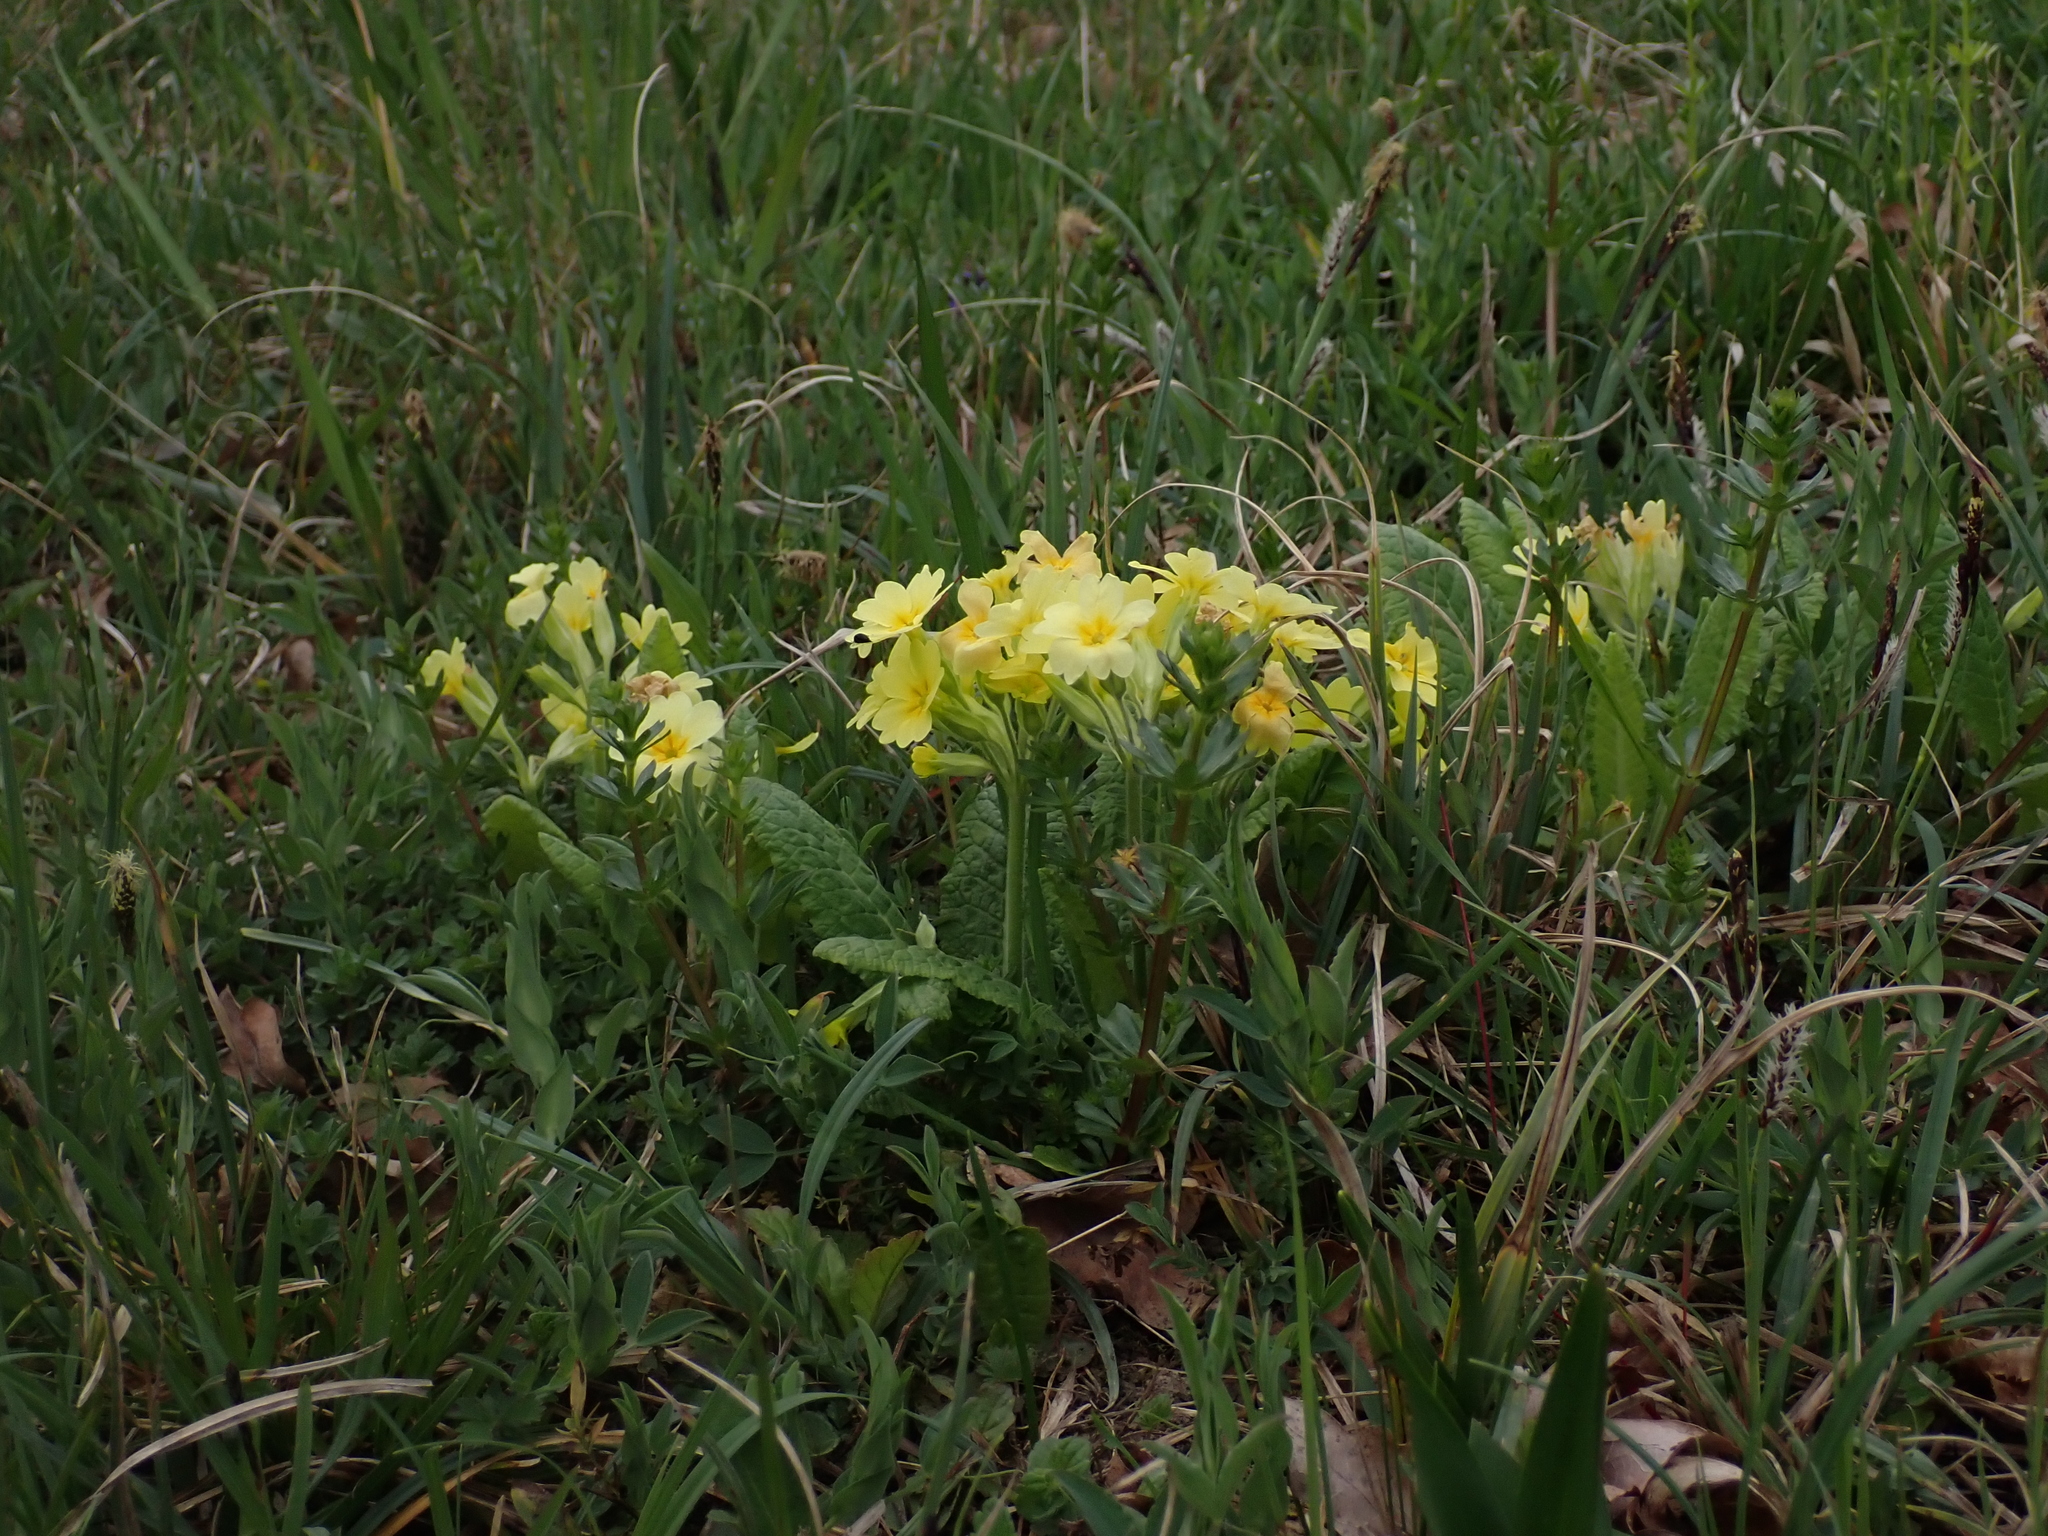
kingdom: Plantae
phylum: Tracheophyta
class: Magnoliopsida
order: Ericales
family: Primulaceae
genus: Primula
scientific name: Primula polyantha
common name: False oxlip
